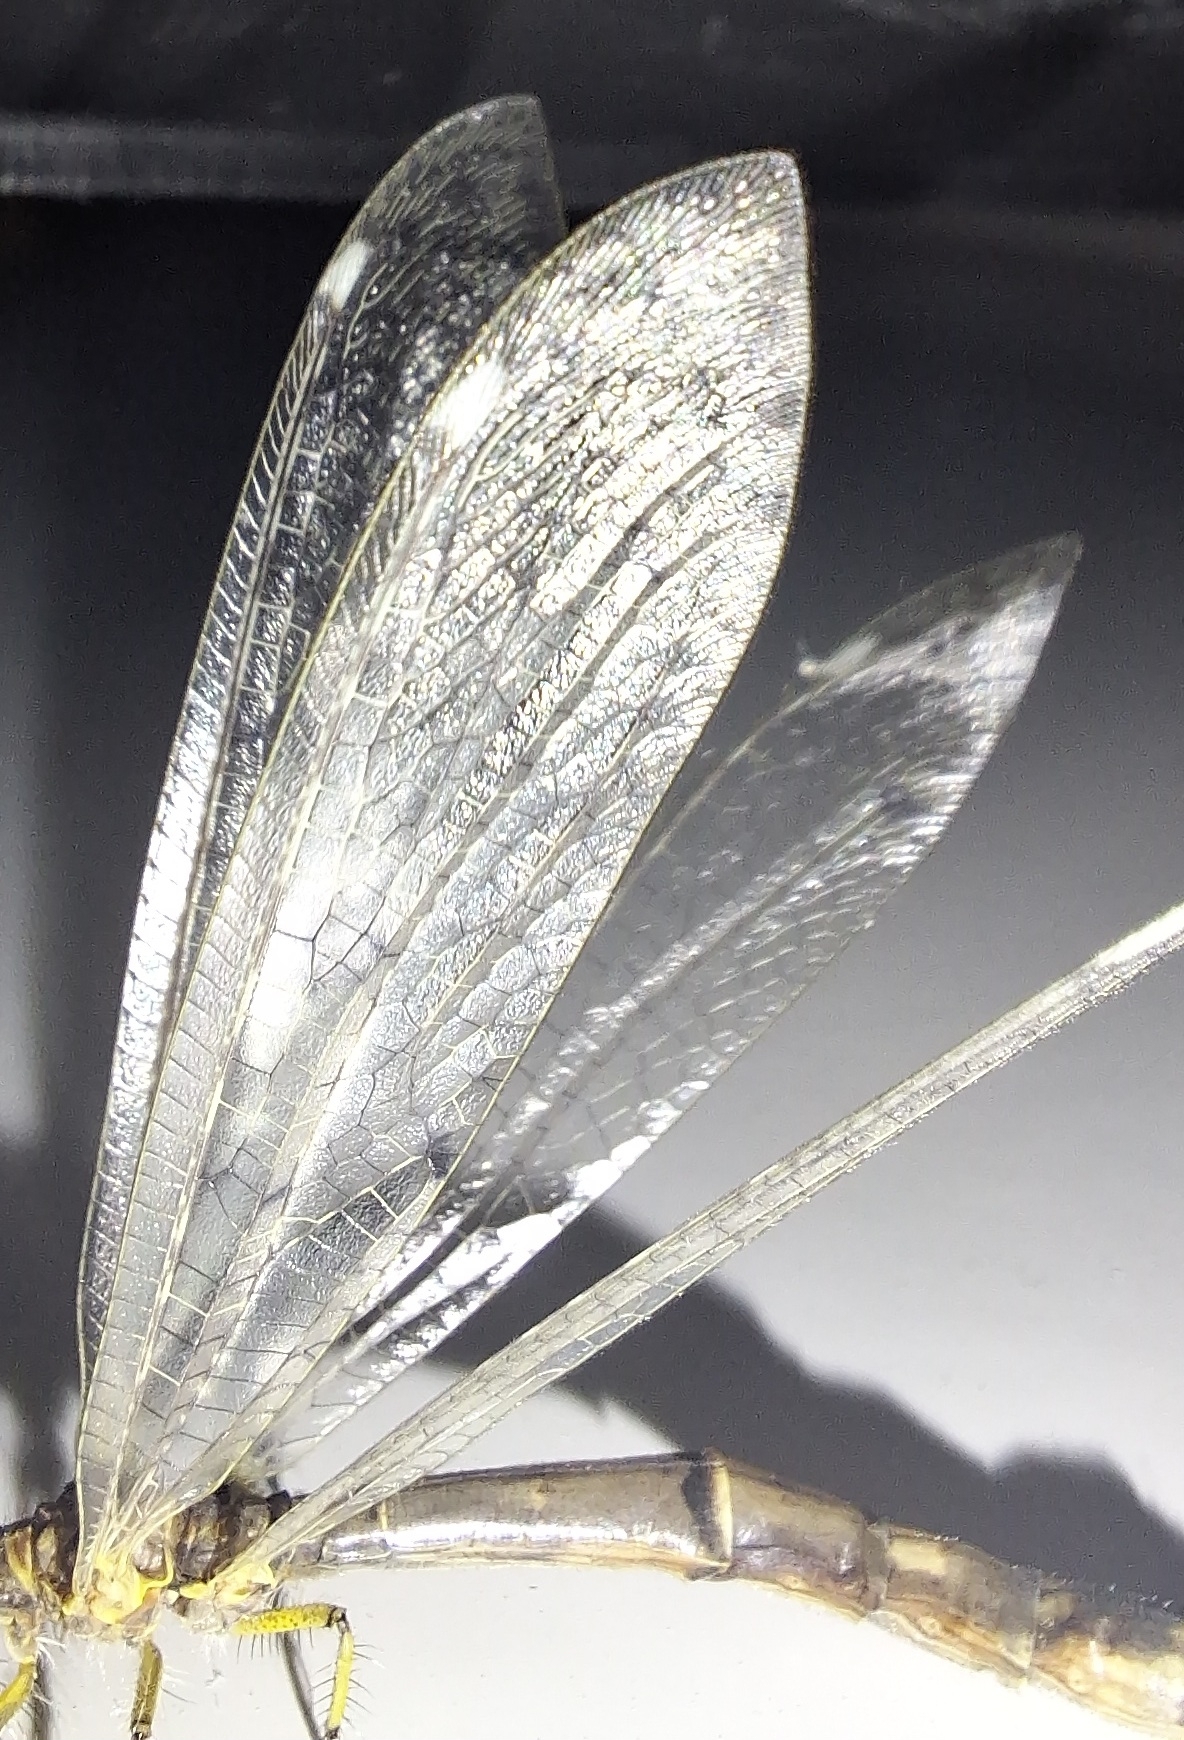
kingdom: Animalia
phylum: Arthropoda
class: Insecta
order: Neuroptera
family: Myrmeleontidae
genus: Distoleon
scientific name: Distoleon tetragrammicus
